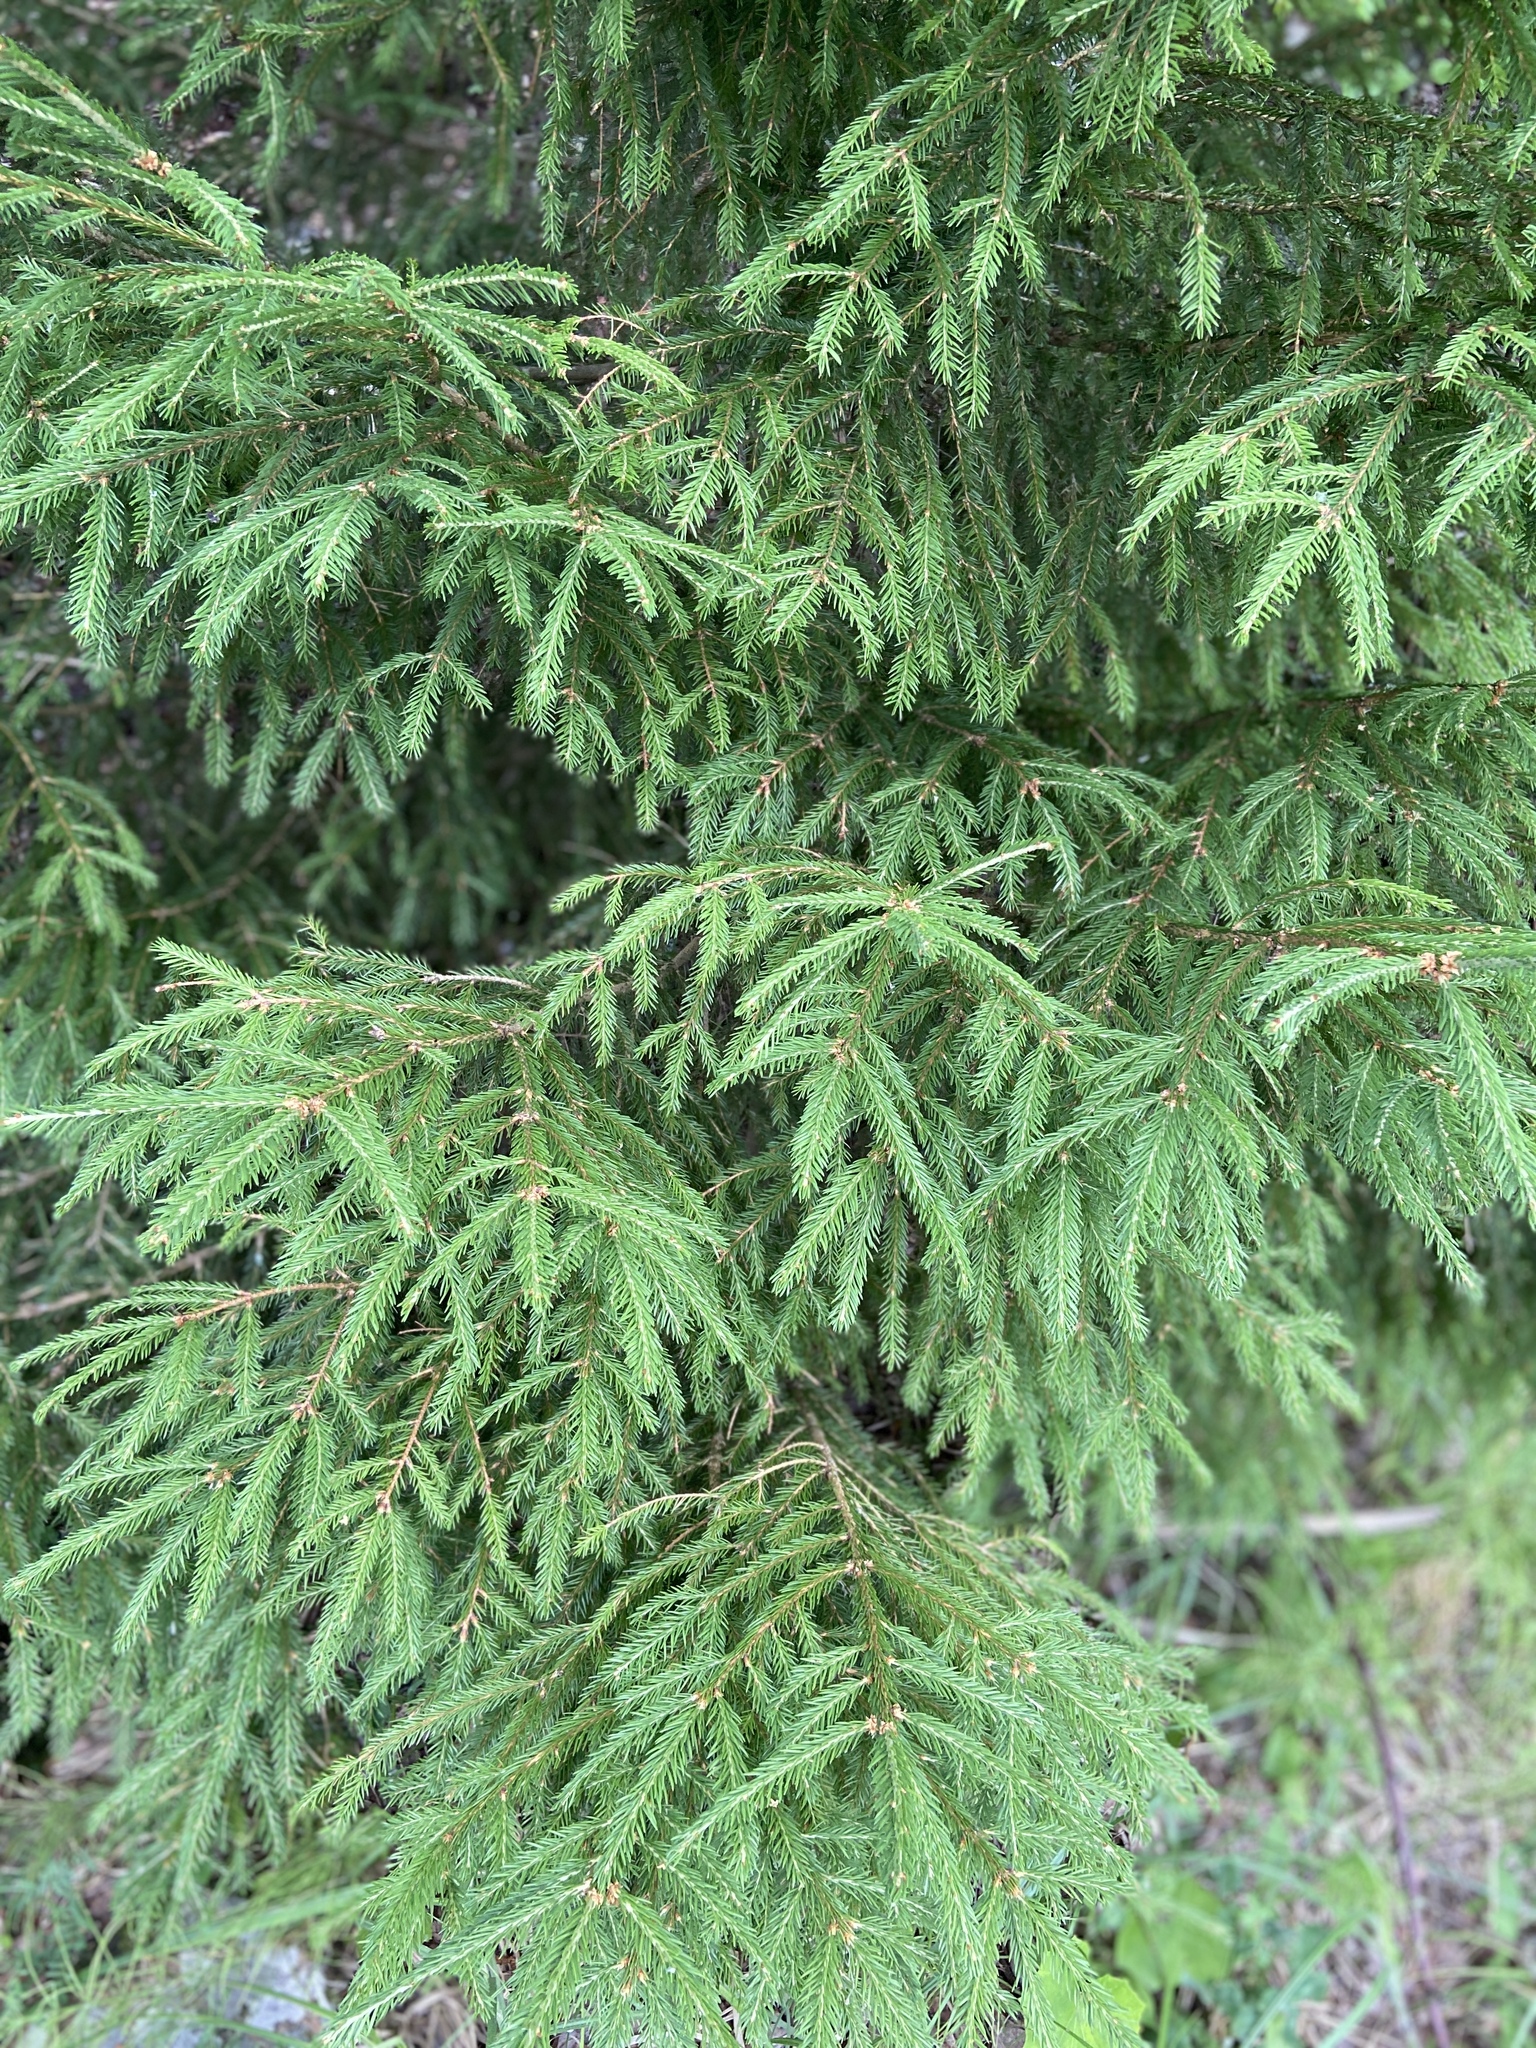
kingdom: Plantae
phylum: Tracheophyta
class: Pinopsida
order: Pinales
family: Pinaceae
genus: Picea
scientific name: Picea abies
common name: Norway spruce
